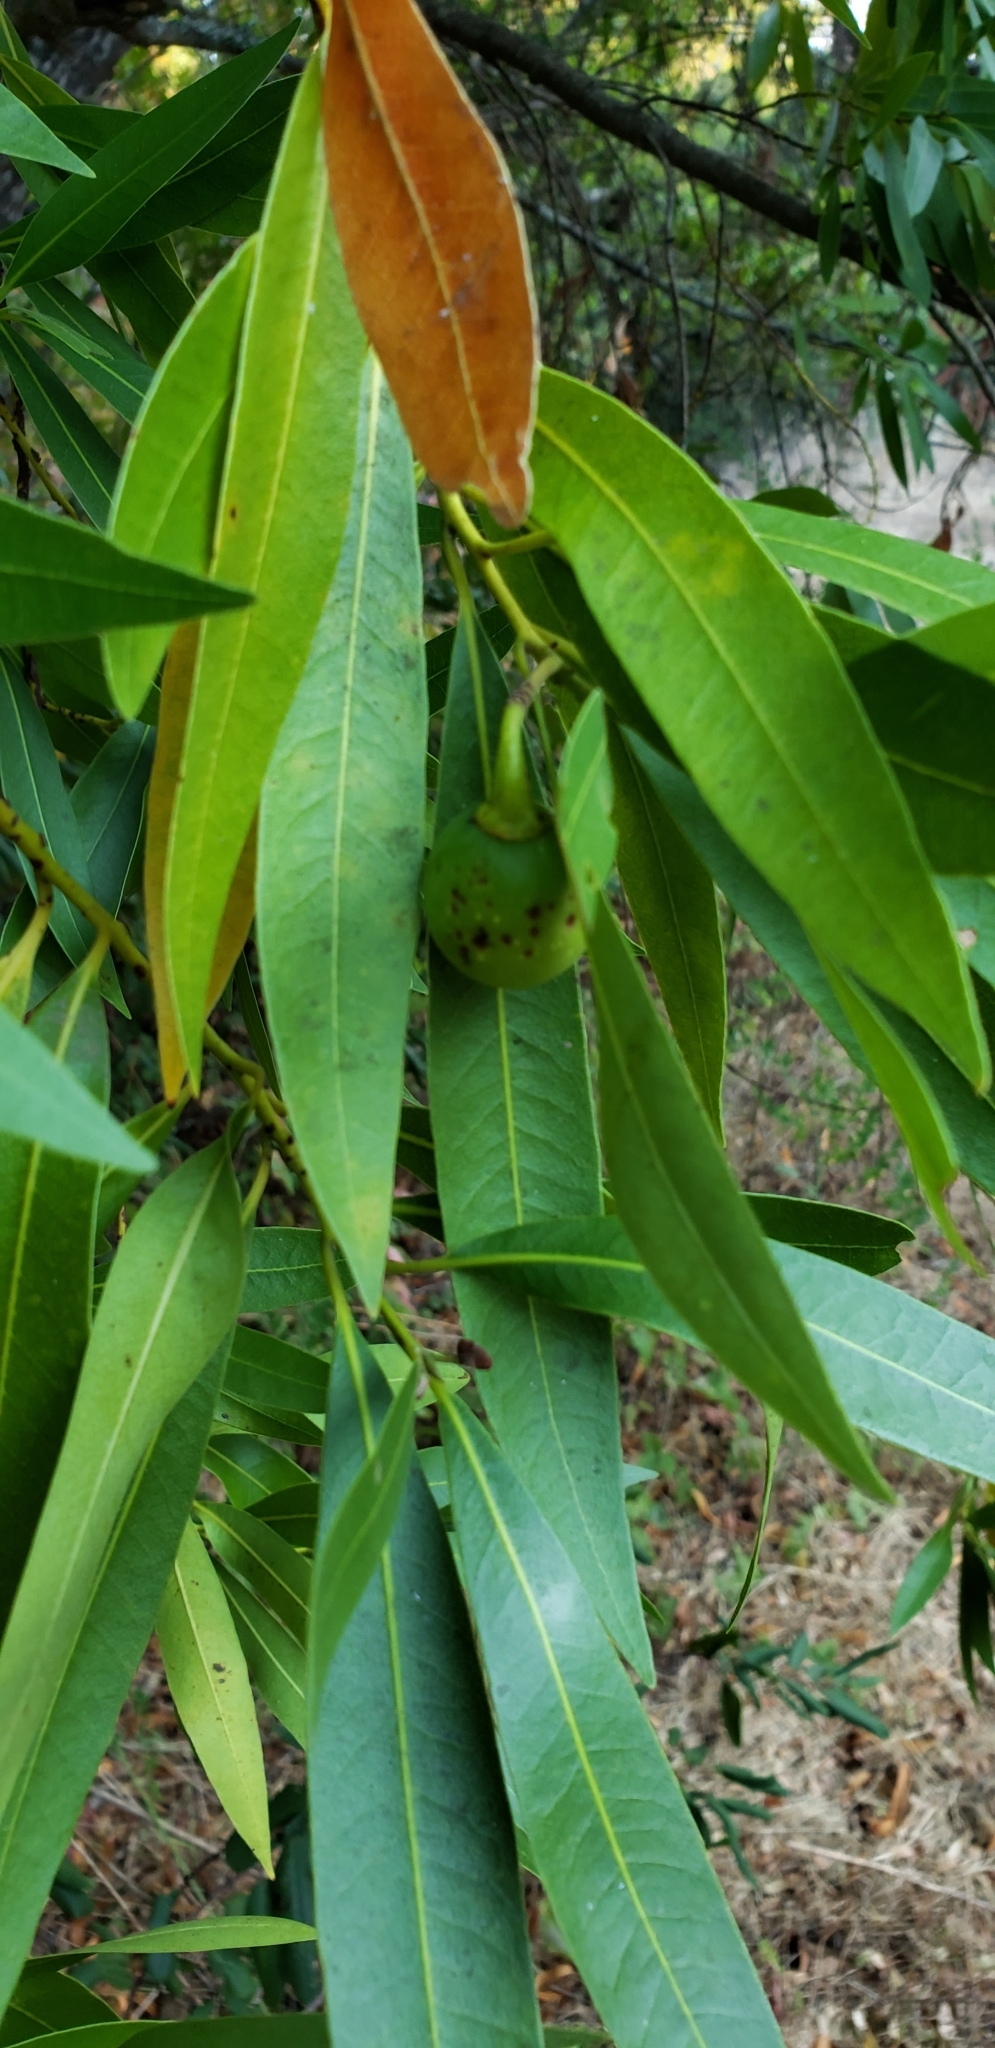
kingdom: Plantae
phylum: Tracheophyta
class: Magnoliopsida
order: Laurales
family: Lauraceae
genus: Umbellularia
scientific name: Umbellularia californica
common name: California bay
